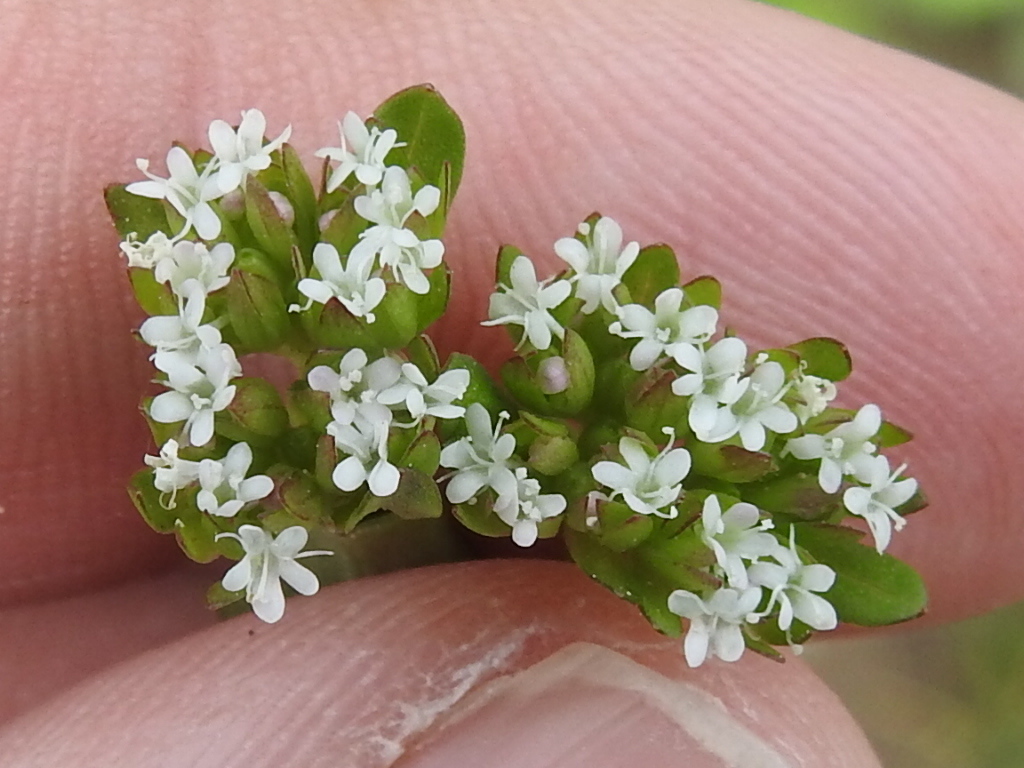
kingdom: Plantae
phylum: Tracheophyta
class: Magnoliopsida
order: Dipsacales
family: Caprifoliaceae
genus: Valerianella
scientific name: Valerianella radiata
